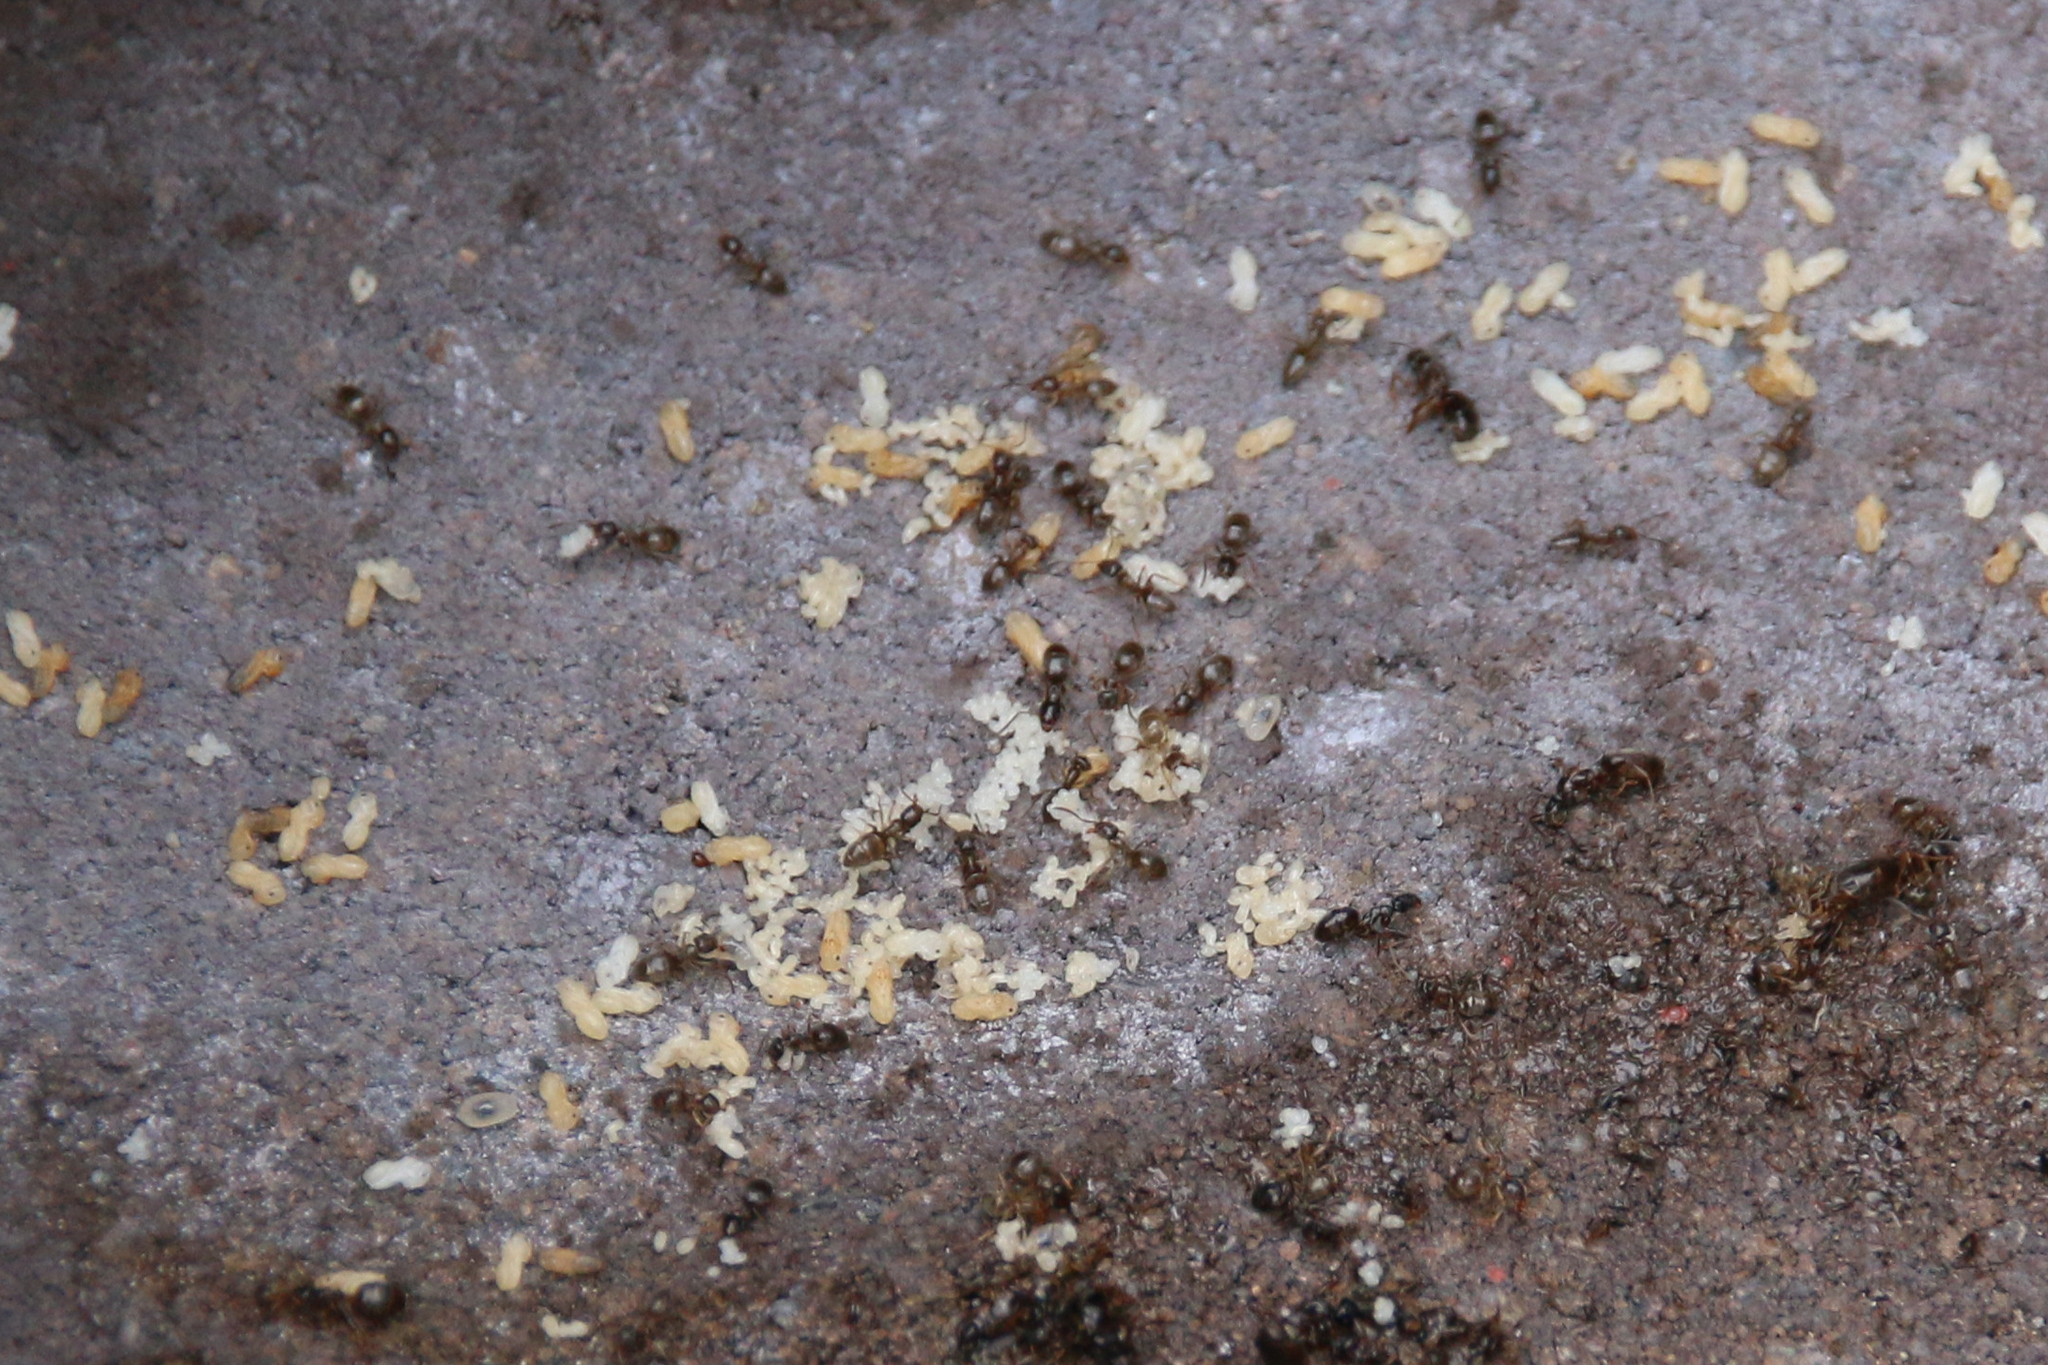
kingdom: Animalia
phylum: Arthropoda
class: Insecta
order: Hymenoptera
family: Formicidae
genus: Tapinoma
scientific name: Tapinoma sessile
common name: Odorous house ant
